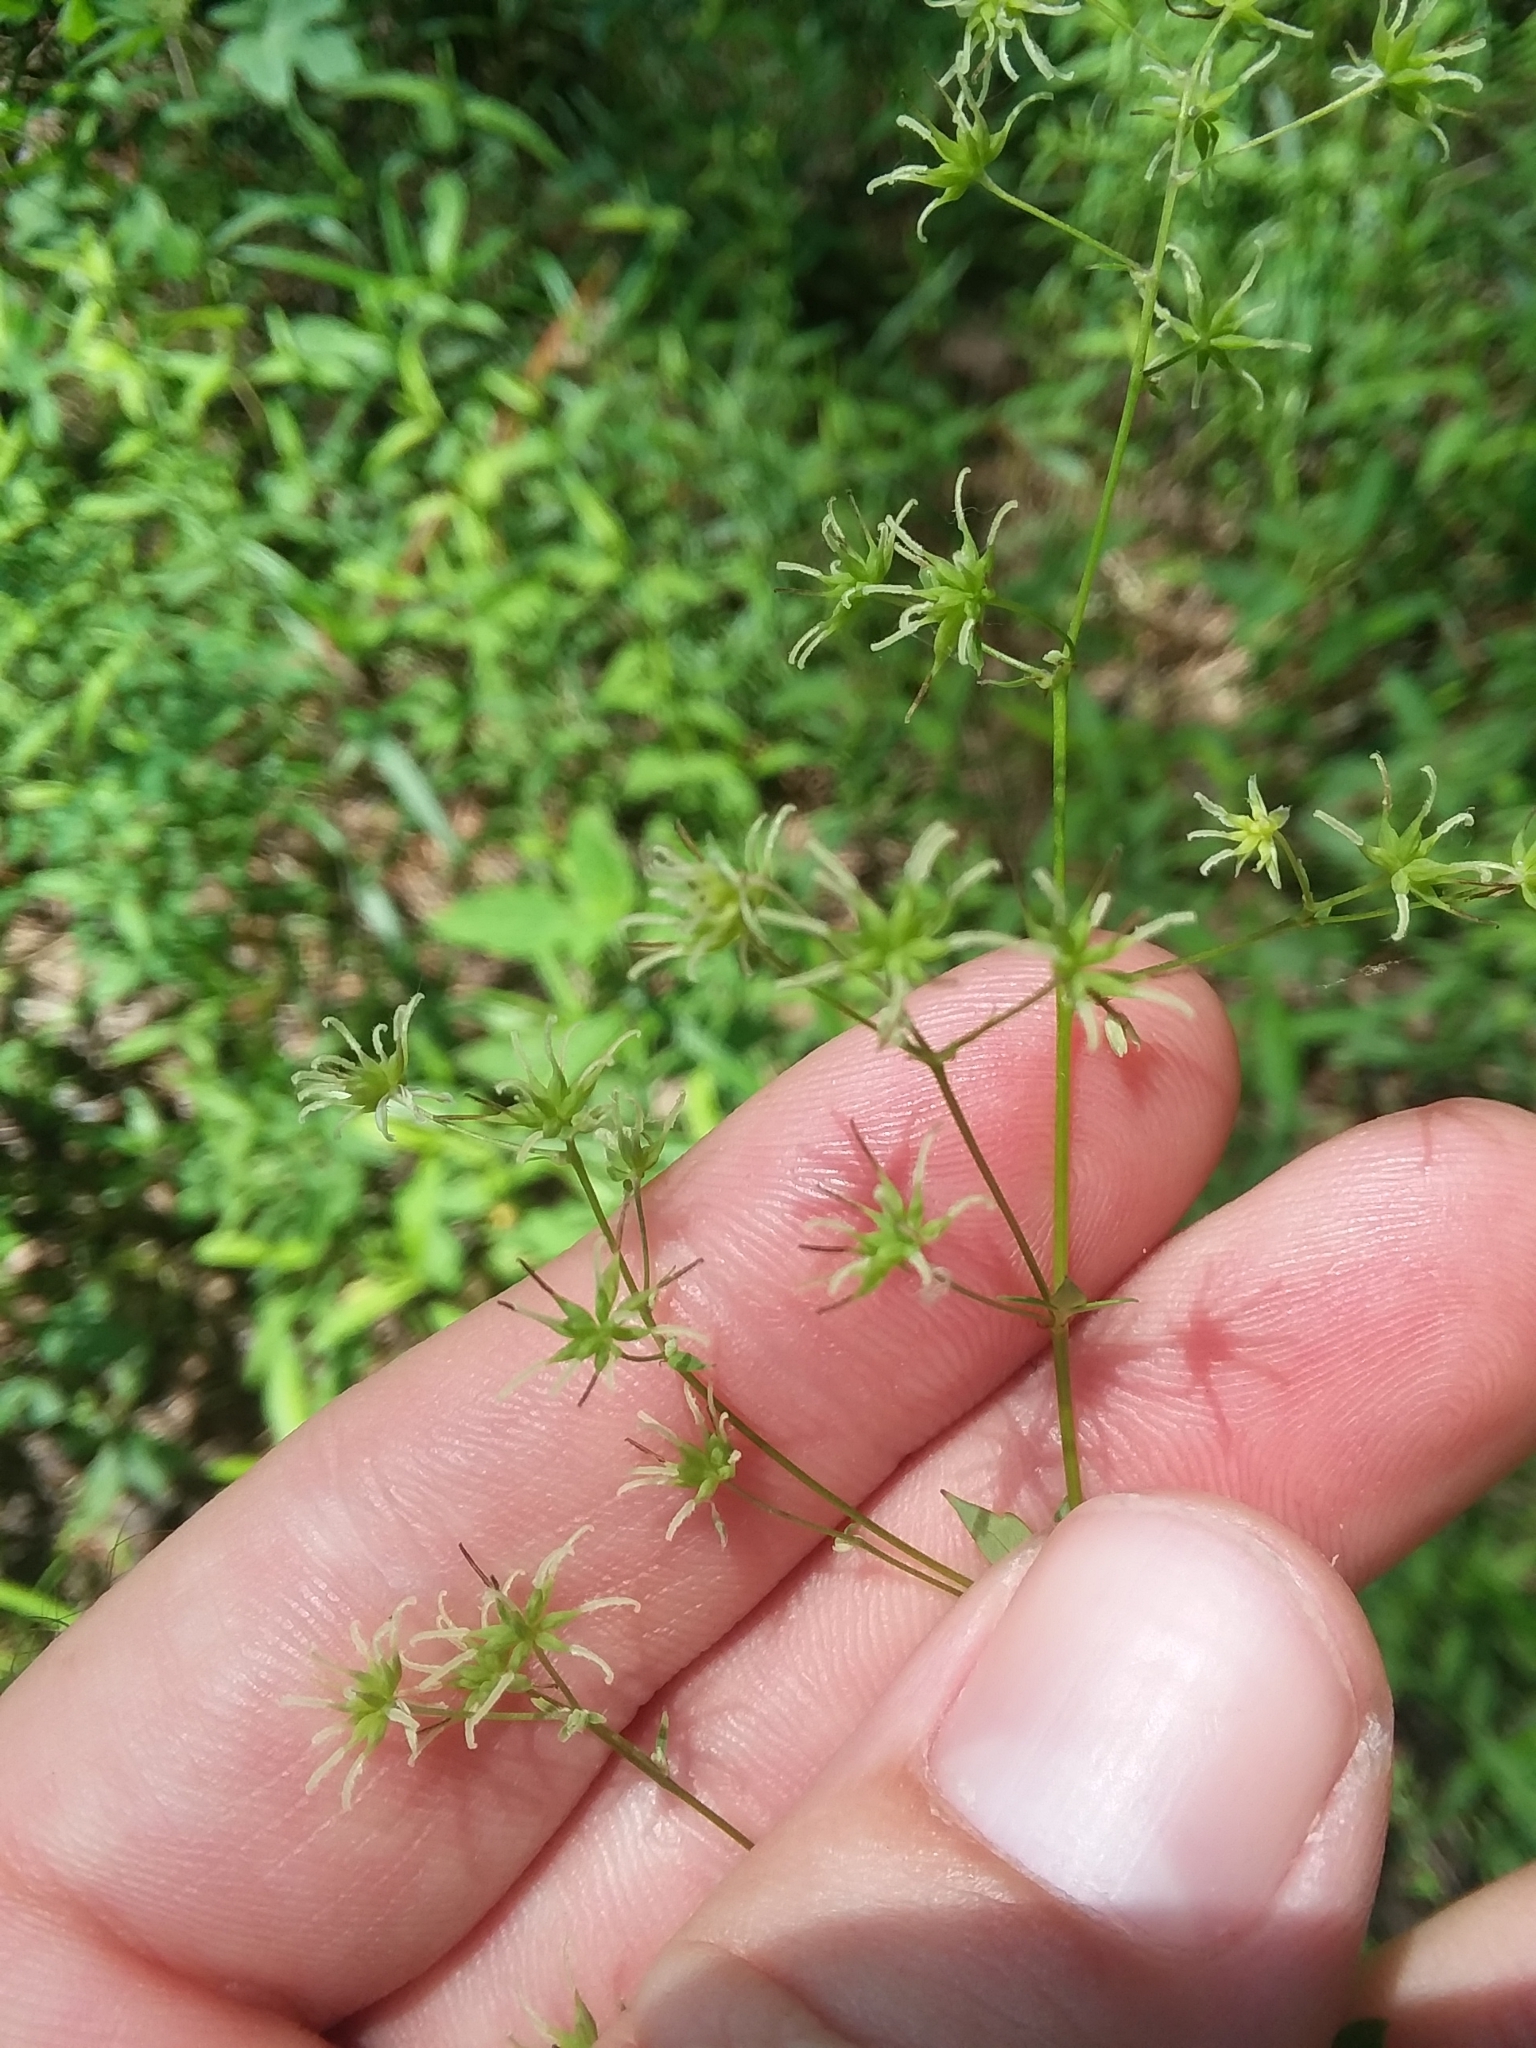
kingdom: Plantae
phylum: Tracheophyta
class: Magnoliopsida
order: Ranunculales
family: Ranunculaceae
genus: Thalictrum
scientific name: Thalictrum revolutum
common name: Waxy meadow-rue
